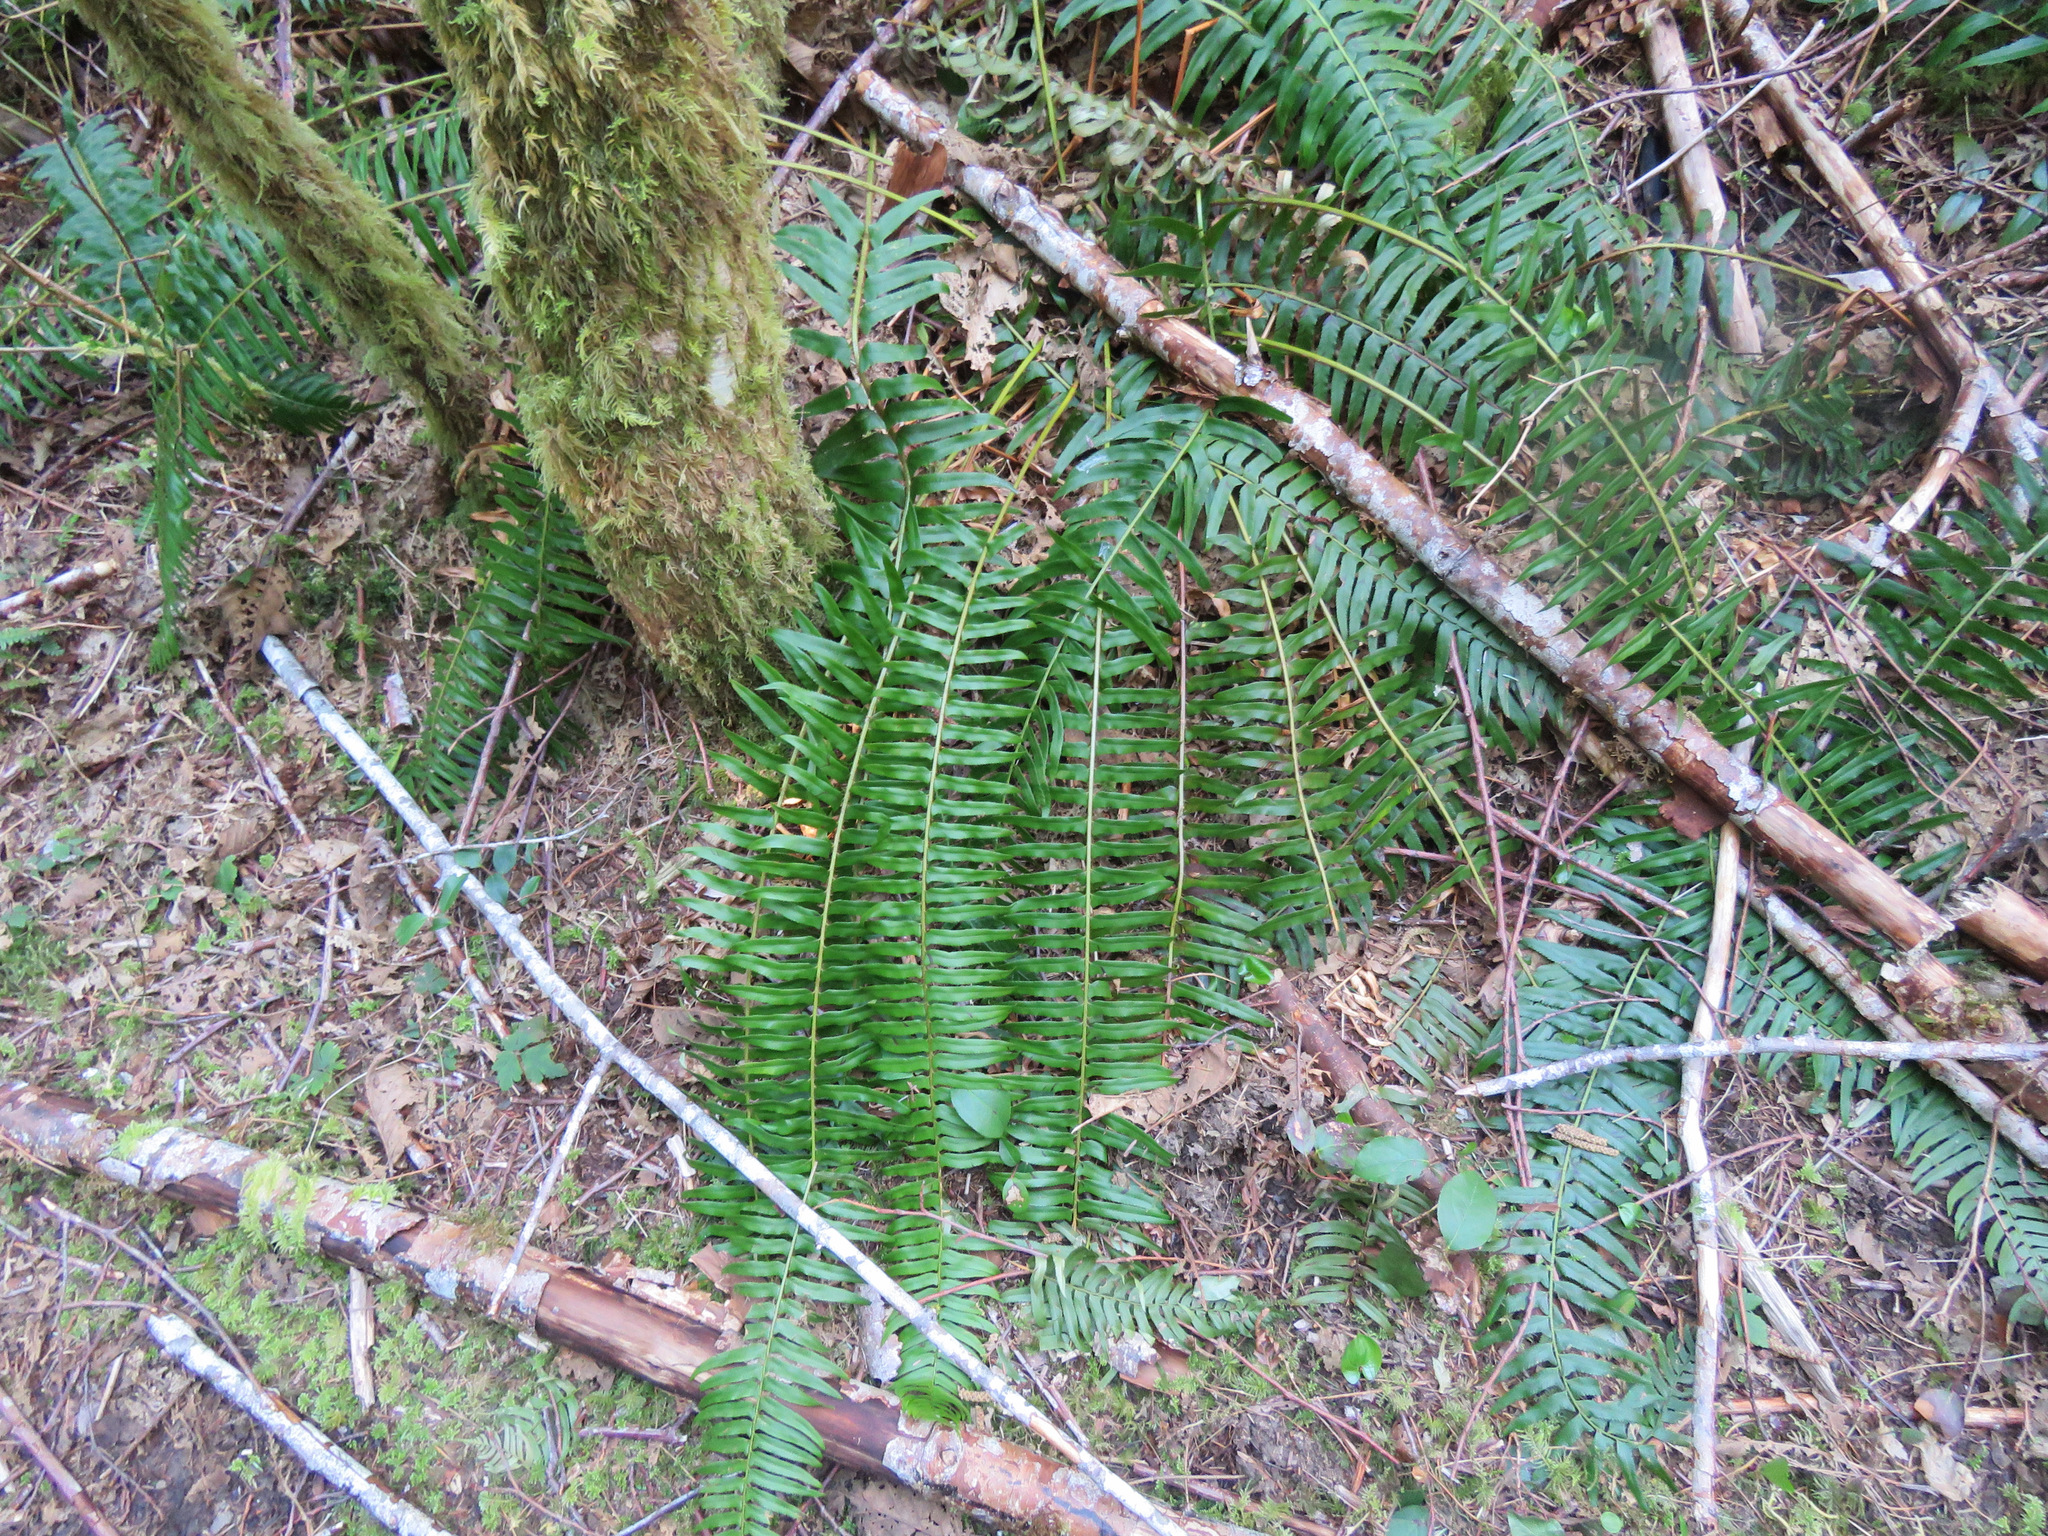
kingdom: Plantae
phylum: Tracheophyta
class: Polypodiopsida
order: Polypodiales
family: Dryopteridaceae
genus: Polystichum
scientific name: Polystichum munitum
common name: Western sword-fern
